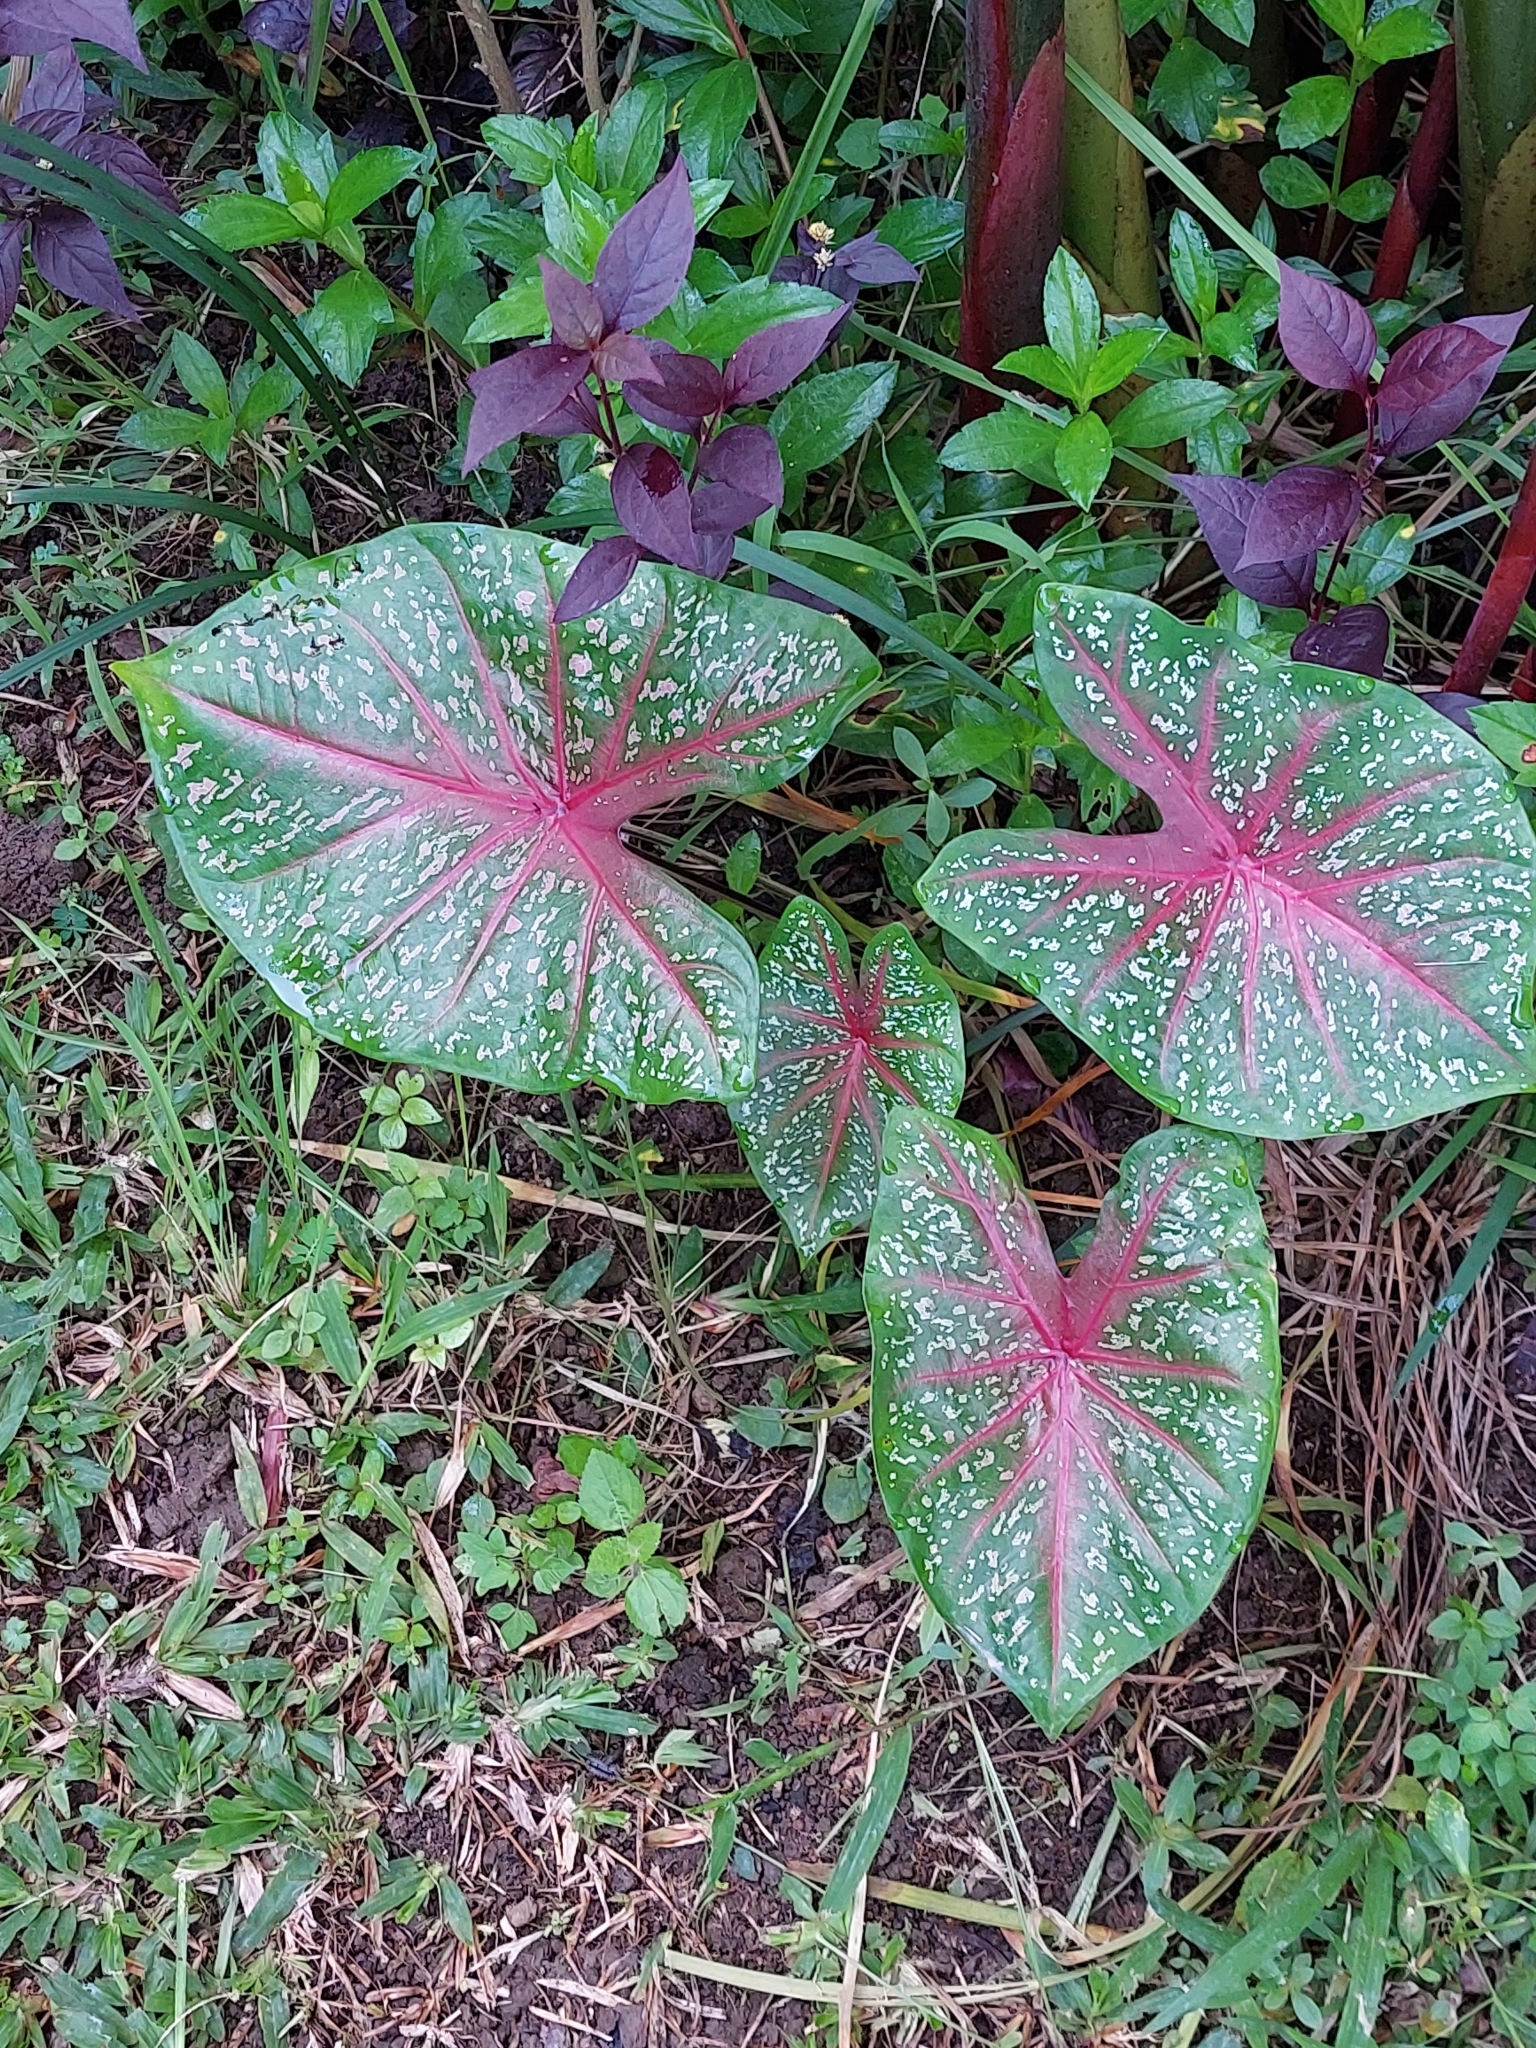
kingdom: Plantae
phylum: Tracheophyta
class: Liliopsida
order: Alismatales
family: Araceae
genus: Caladium
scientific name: Caladium bicolor
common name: Artist's pallet
